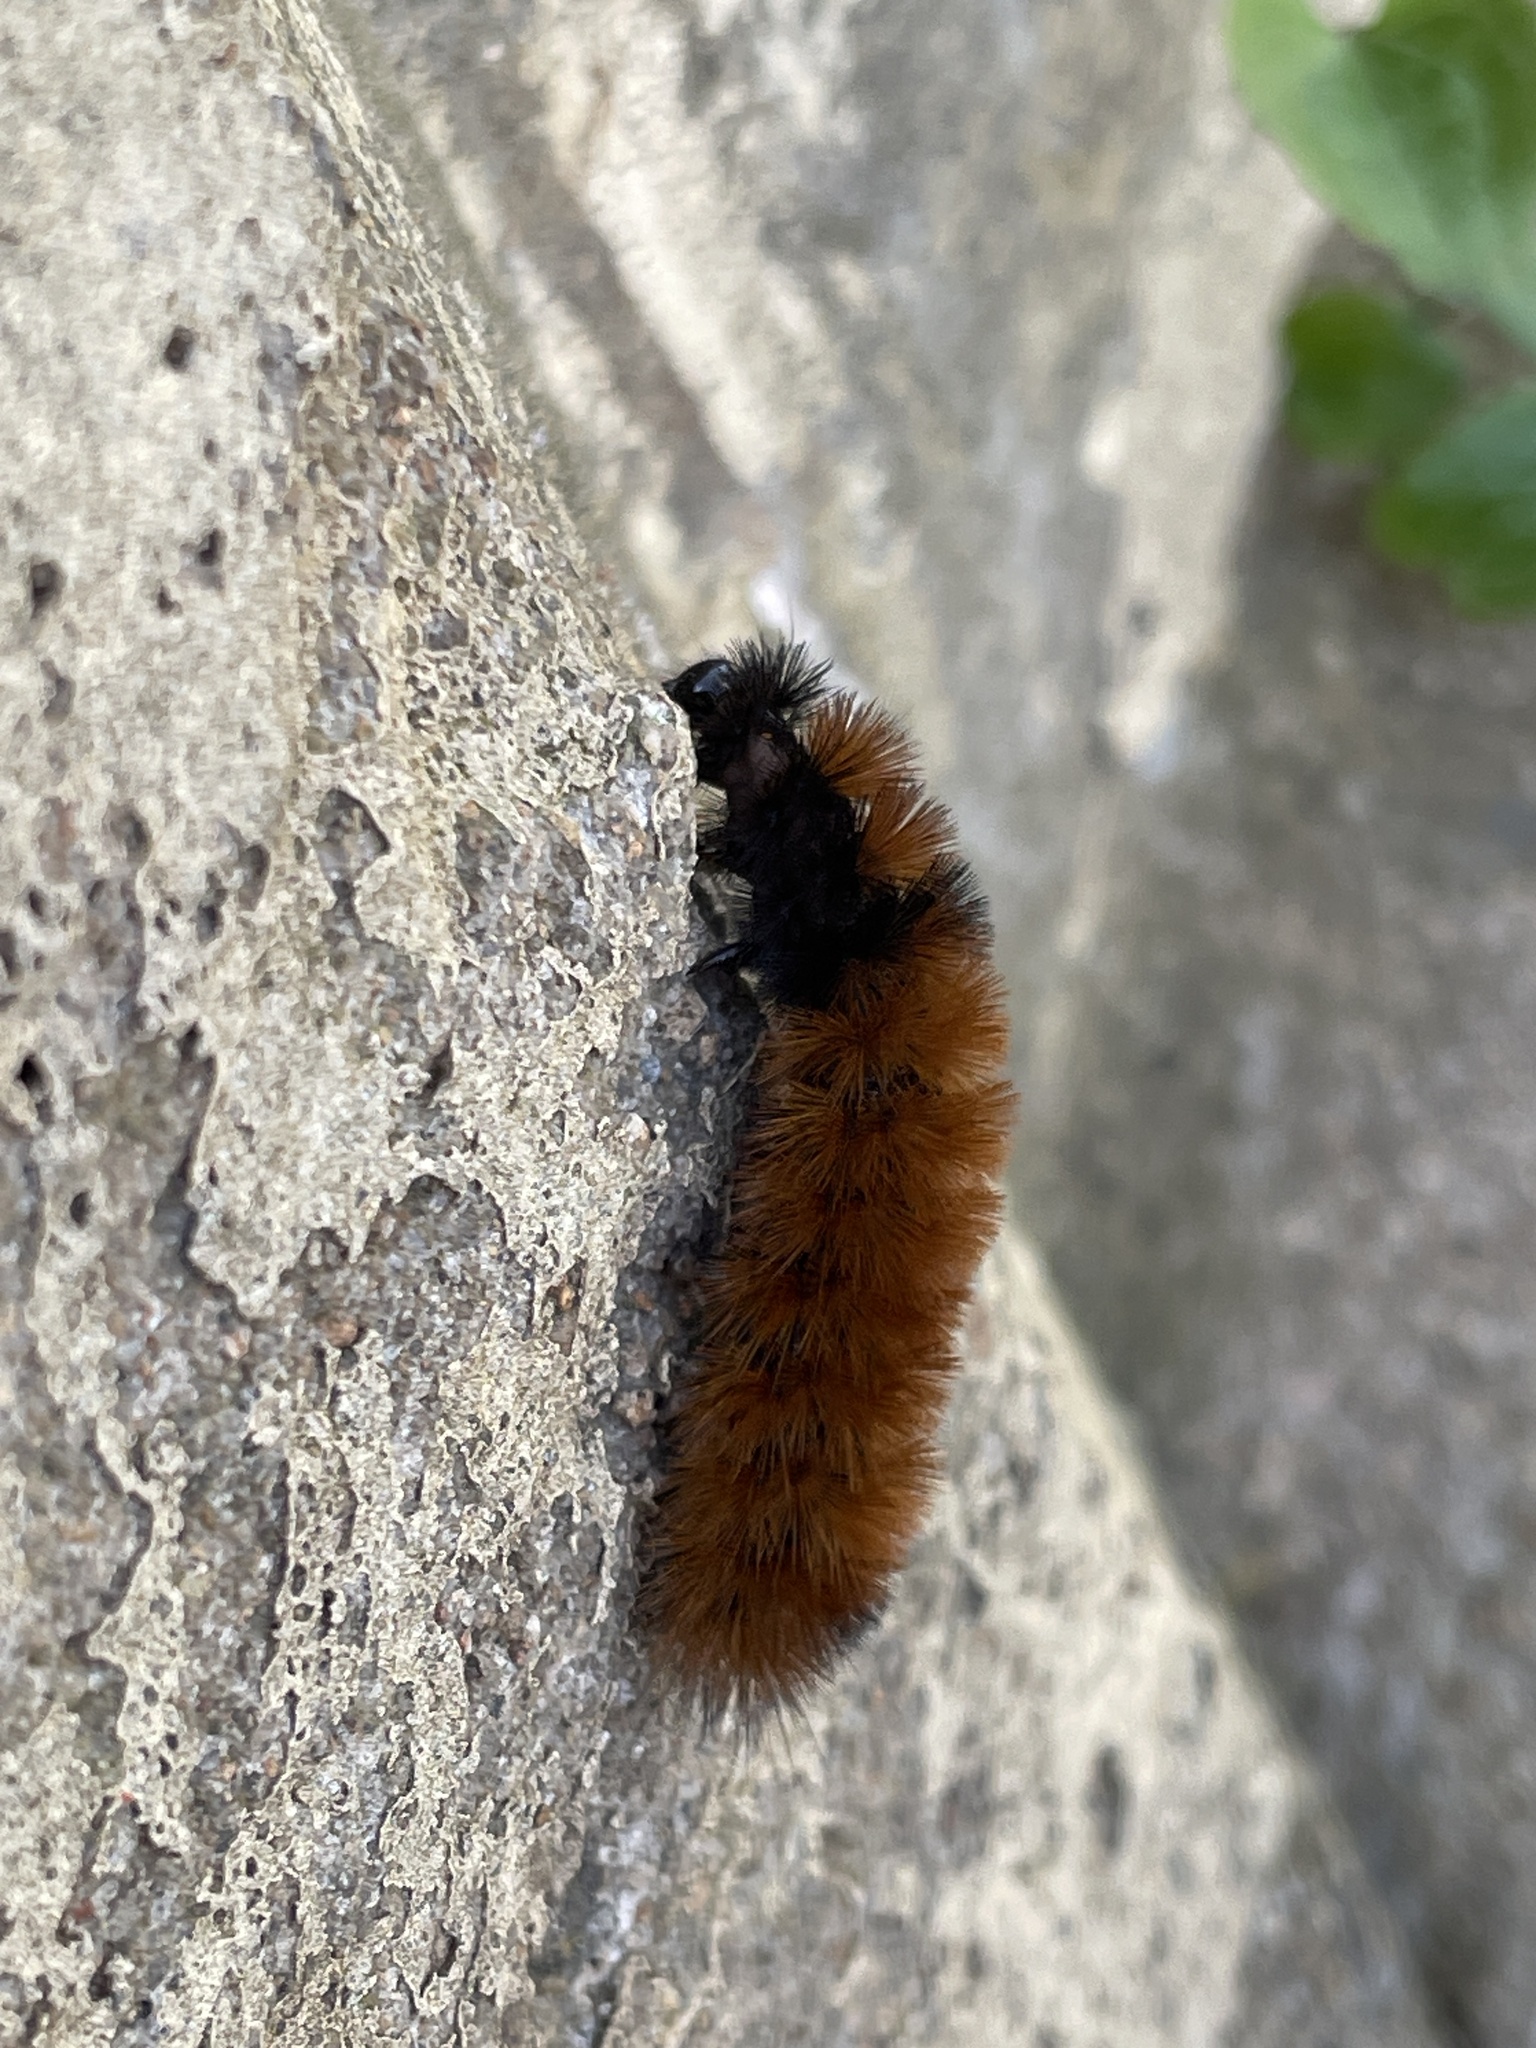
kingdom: Animalia
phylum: Arthropoda
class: Insecta
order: Lepidoptera
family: Erebidae
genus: Pyrrharctia
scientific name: Pyrrharctia isabella
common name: Isabella tiger moth
